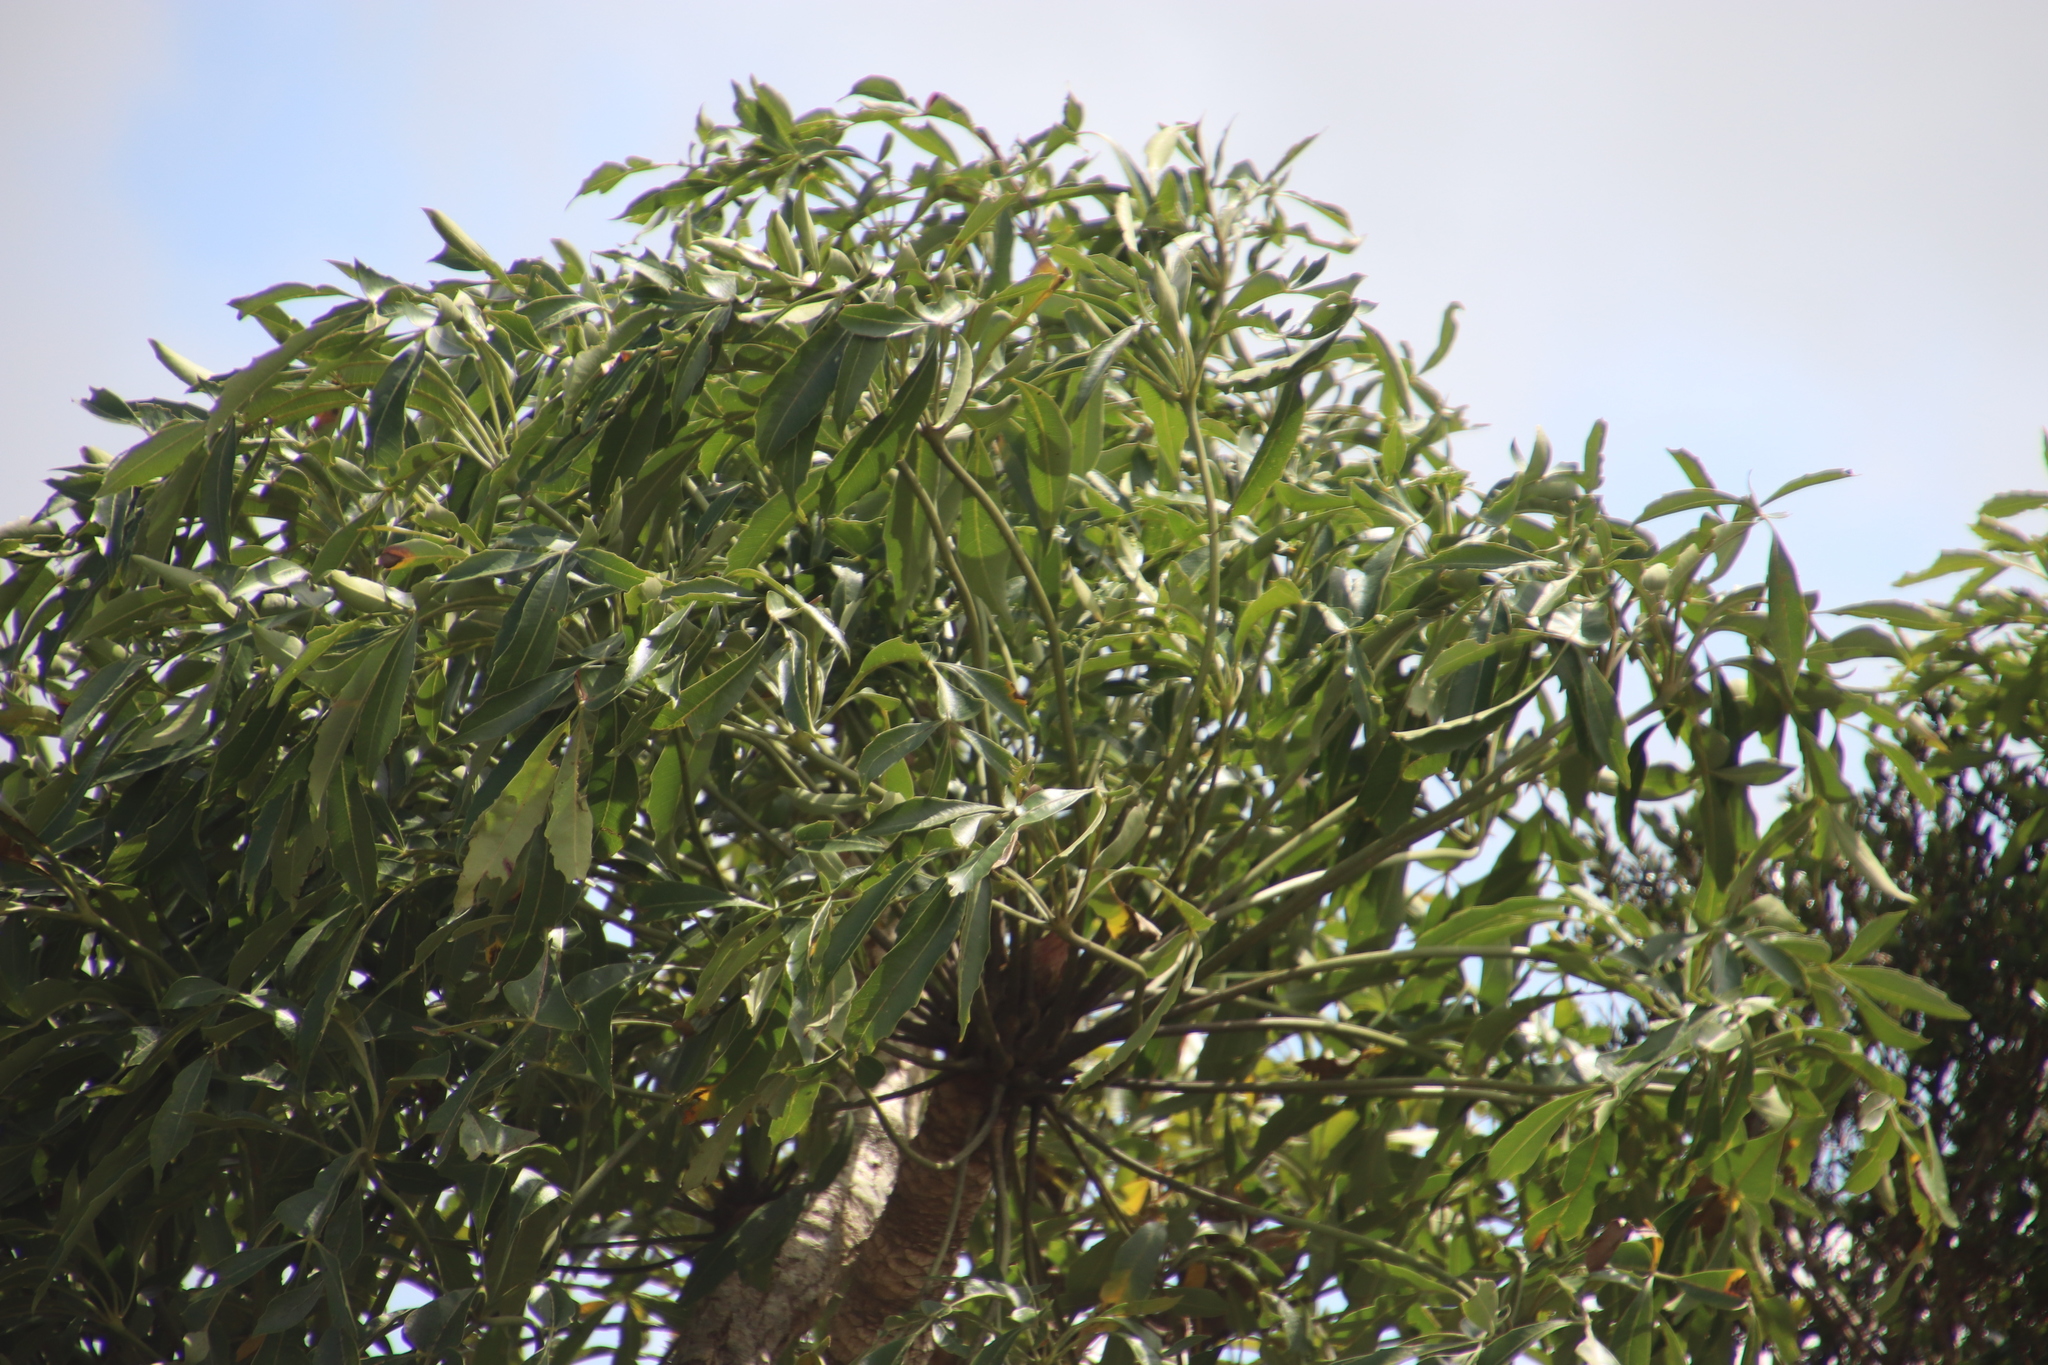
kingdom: Plantae
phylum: Tracheophyta
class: Magnoliopsida
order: Apiales
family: Araliaceae
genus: Cussonia
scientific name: Cussonia spicata
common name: Common cabbagetree
